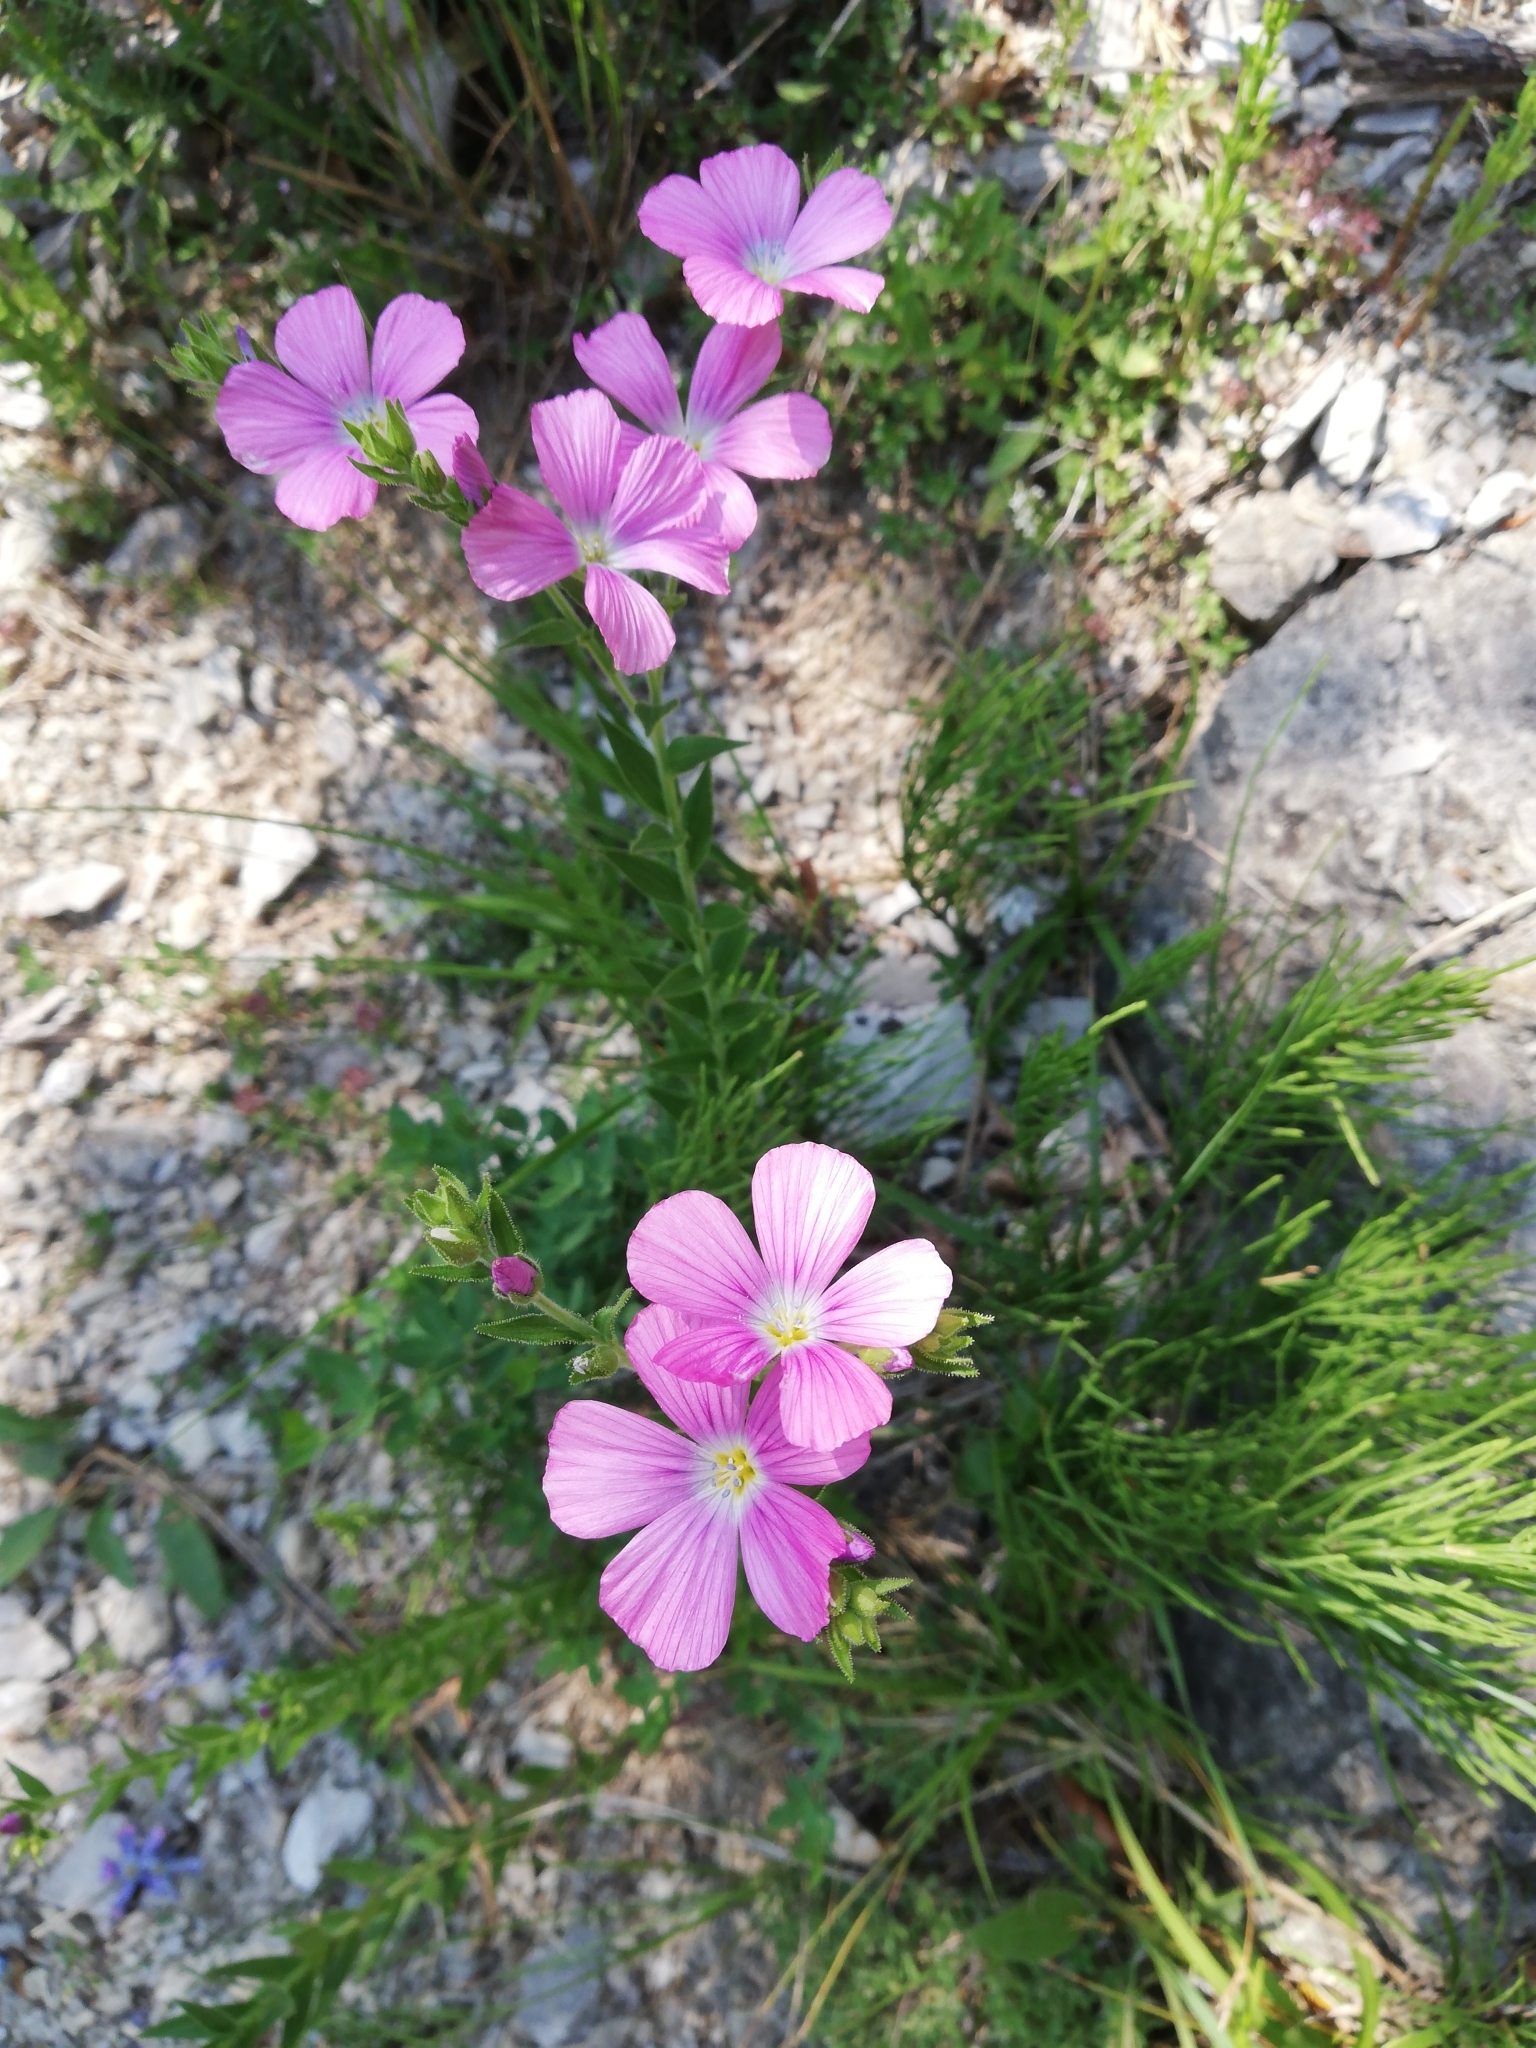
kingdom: Plantae
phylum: Tracheophyta
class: Magnoliopsida
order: Malpighiales
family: Linaceae
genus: Linum
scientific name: Linum viscosum
